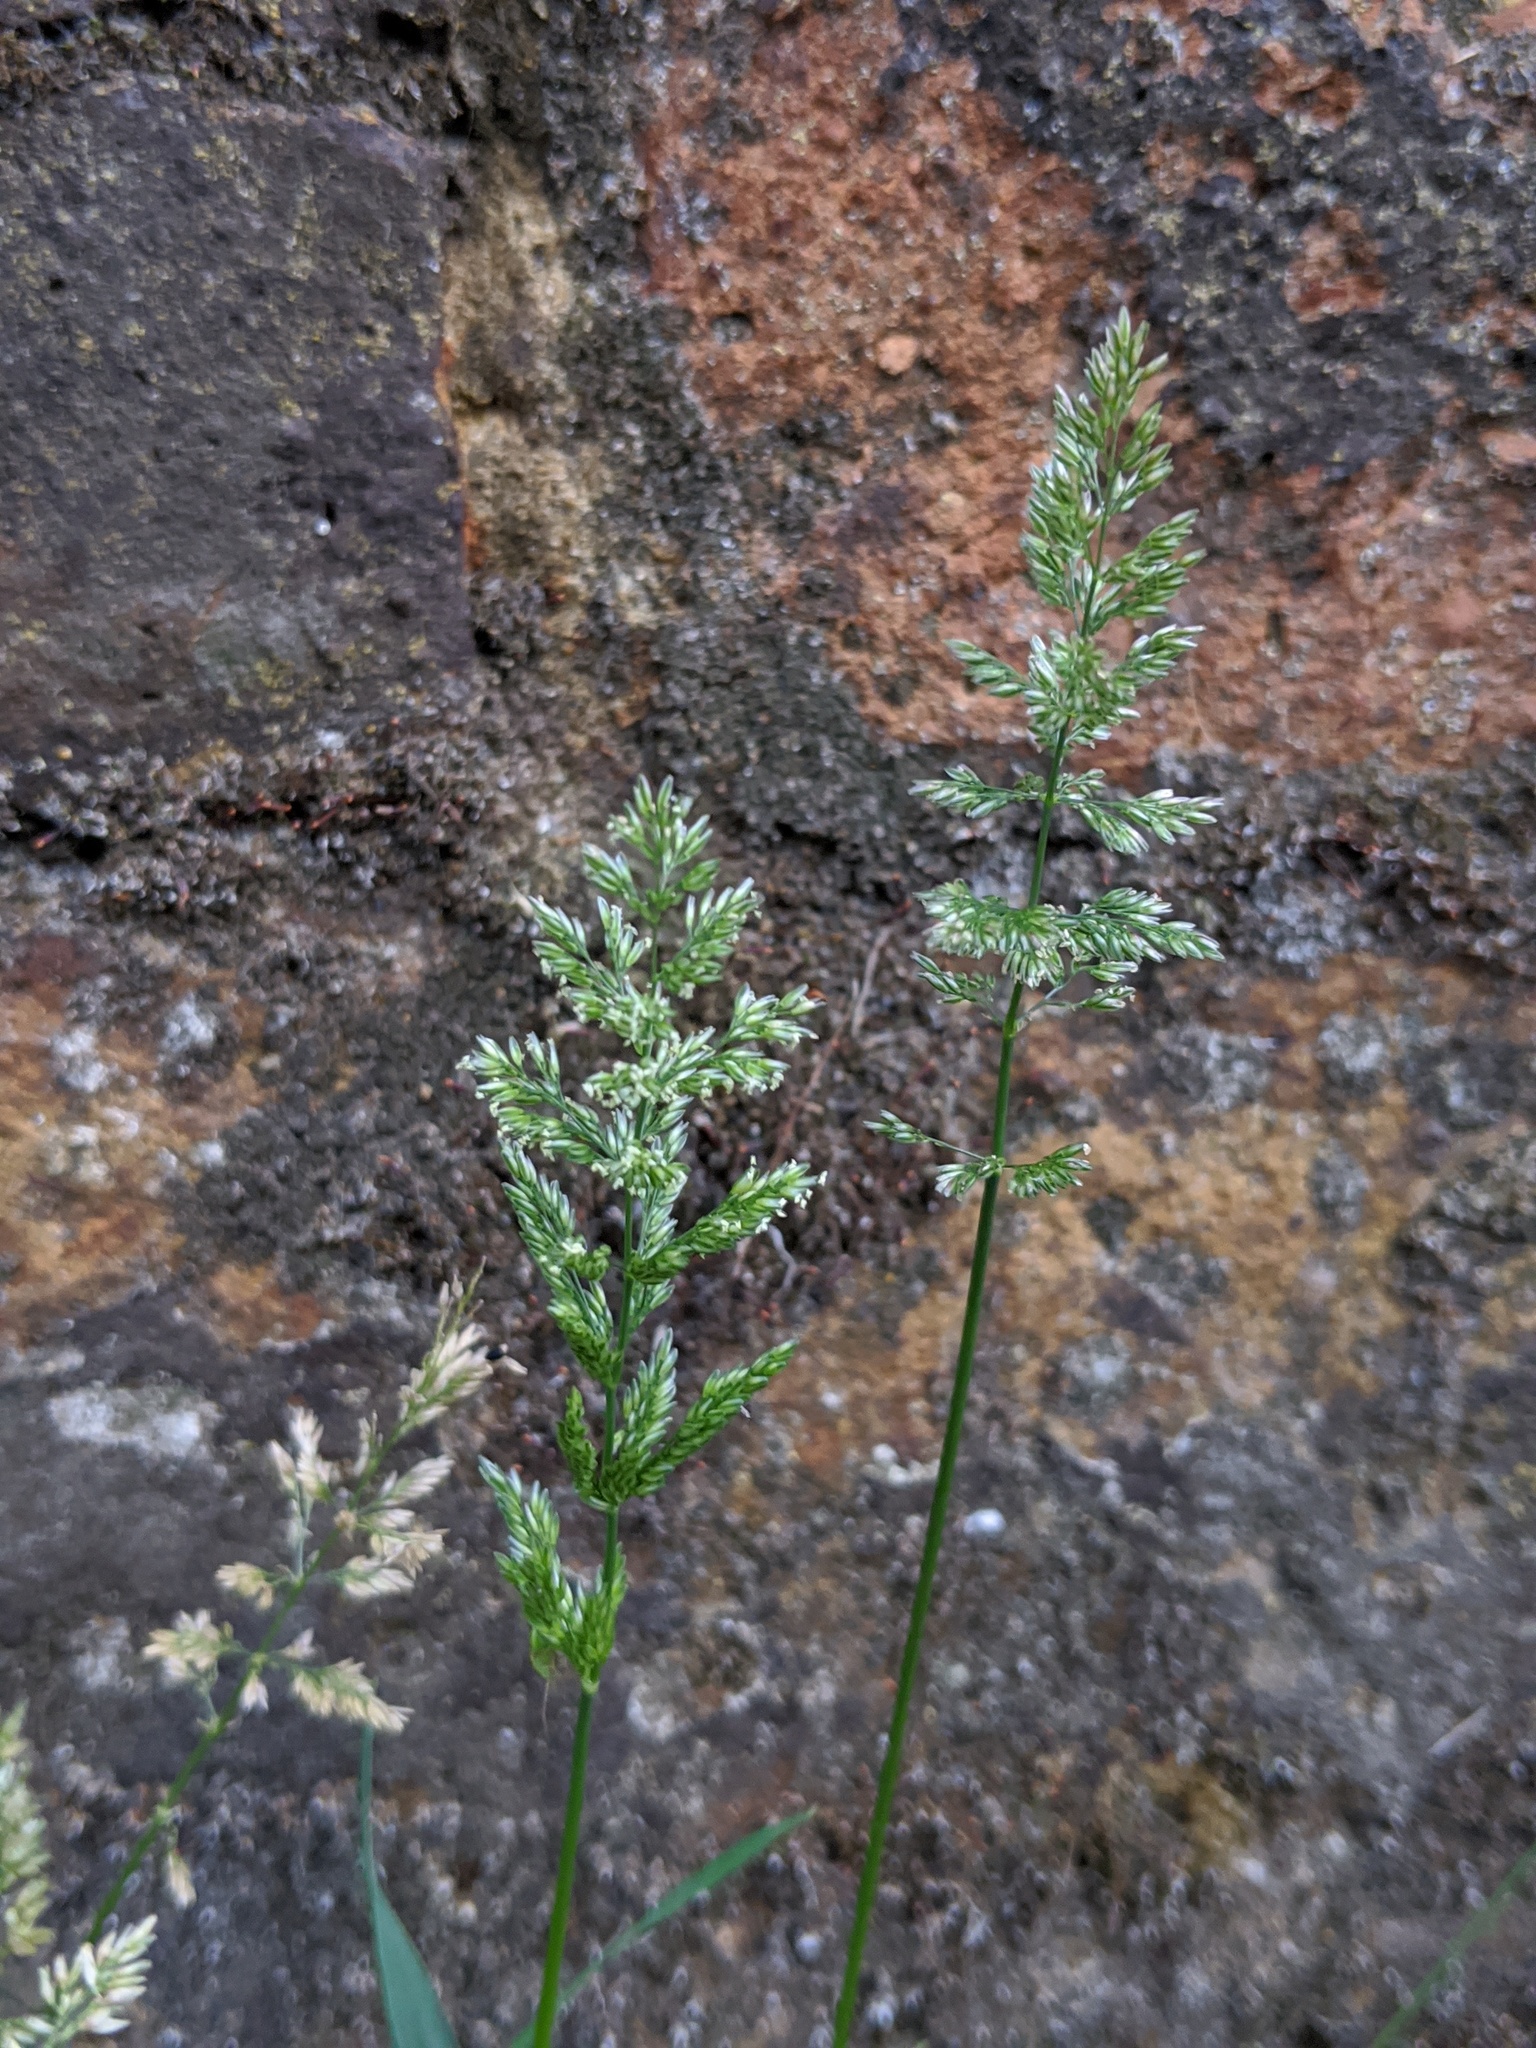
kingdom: Plantae
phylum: Tracheophyta
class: Liliopsida
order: Poales
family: Poaceae
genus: Polypogon
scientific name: Polypogon viridis
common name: Water bent
